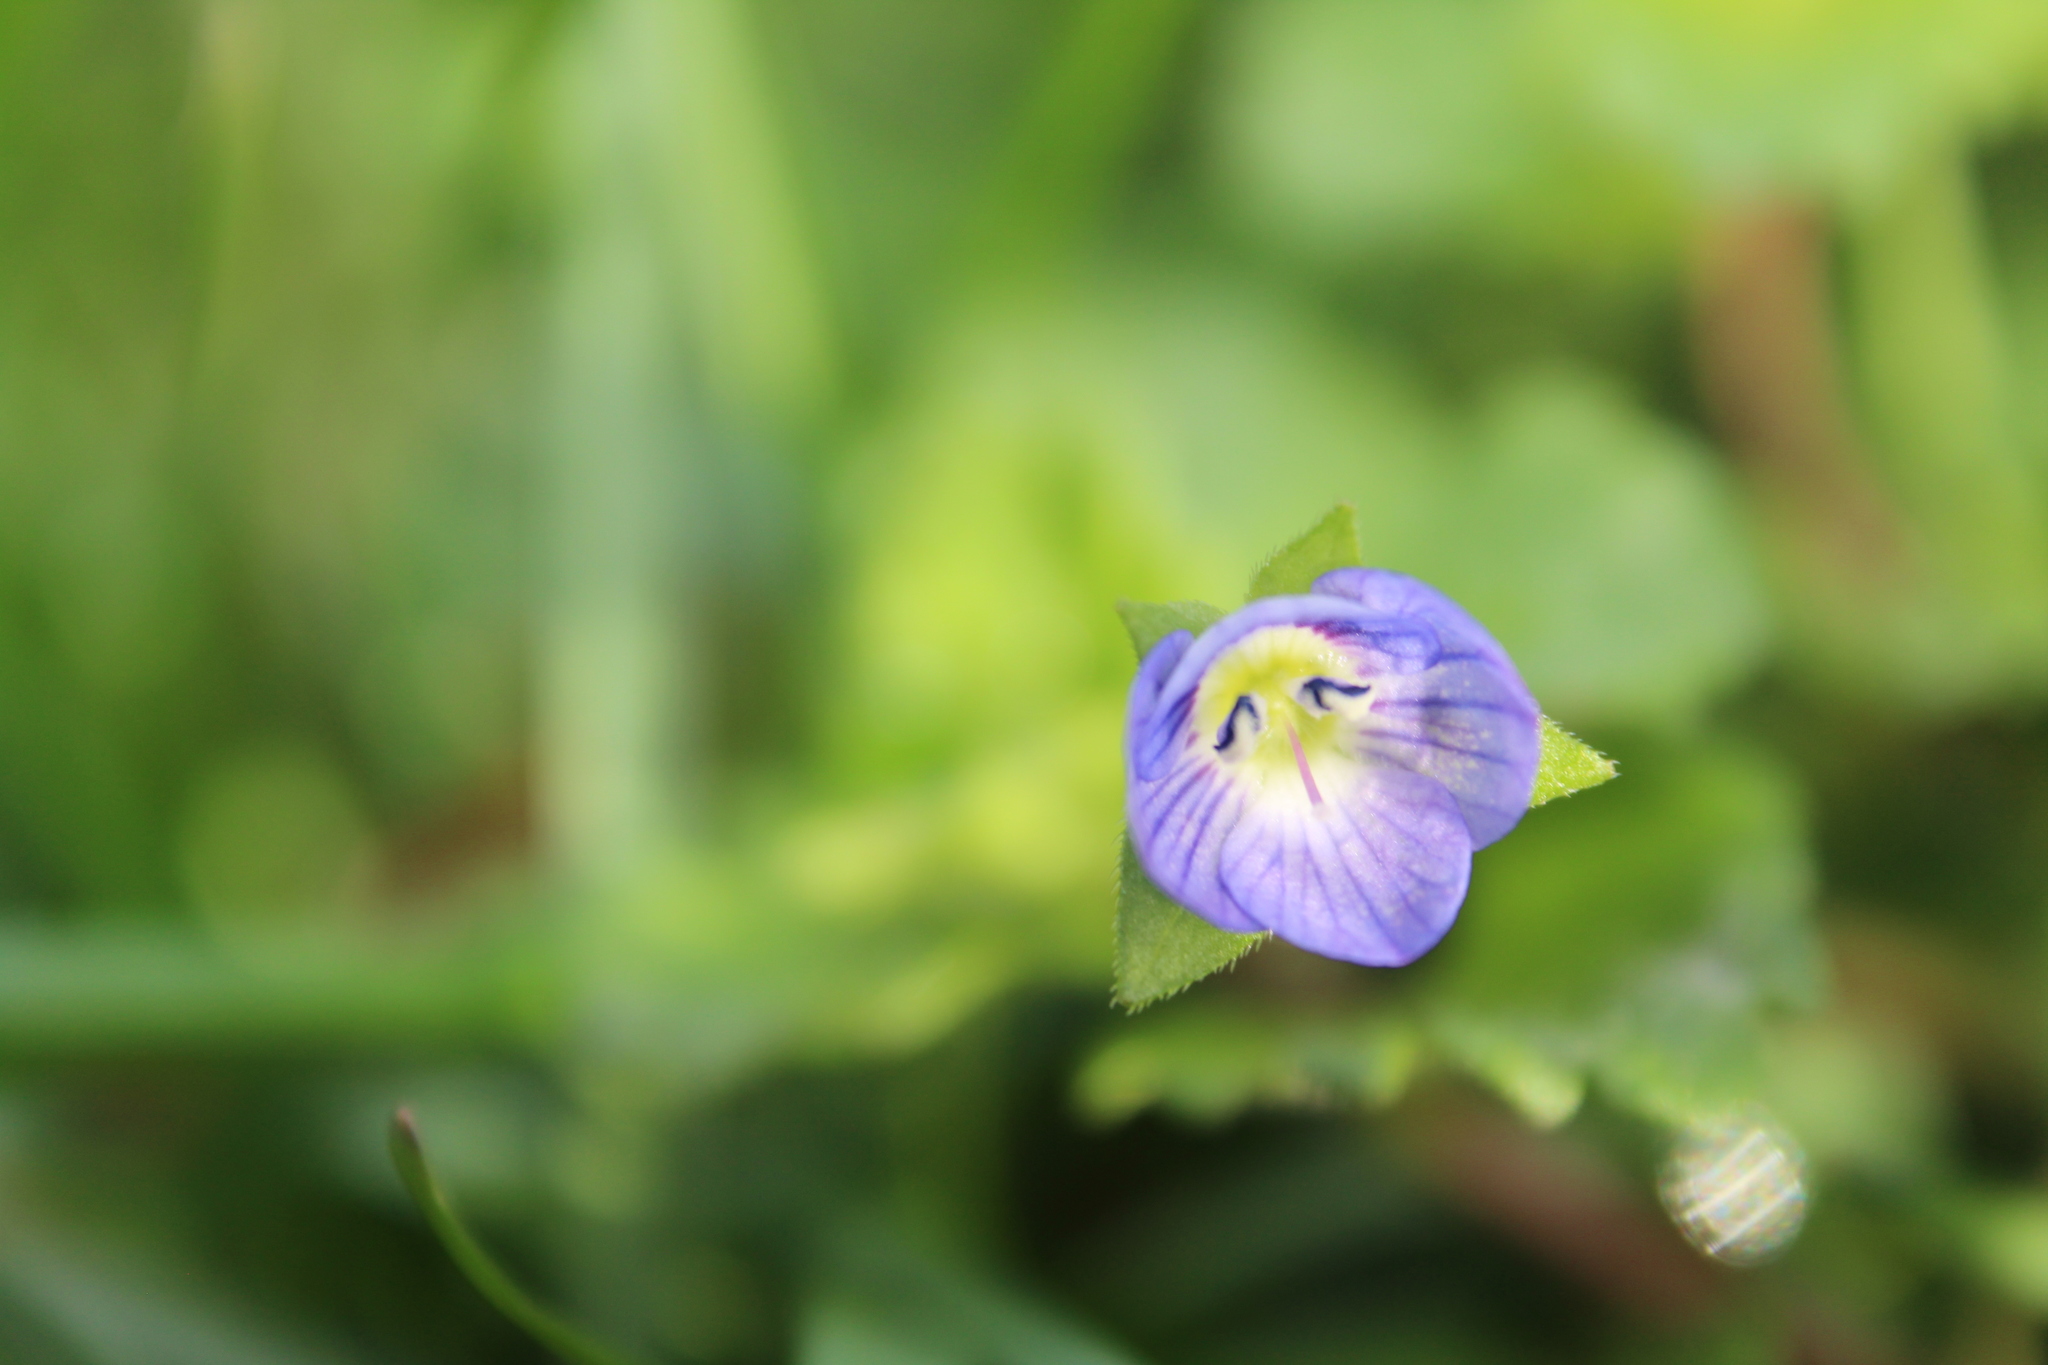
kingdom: Plantae
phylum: Tracheophyta
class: Magnoliopsida
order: Lamiales
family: Plantaginaceae
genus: Veronica
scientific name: Veronica persica
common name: Common field-speedwell
